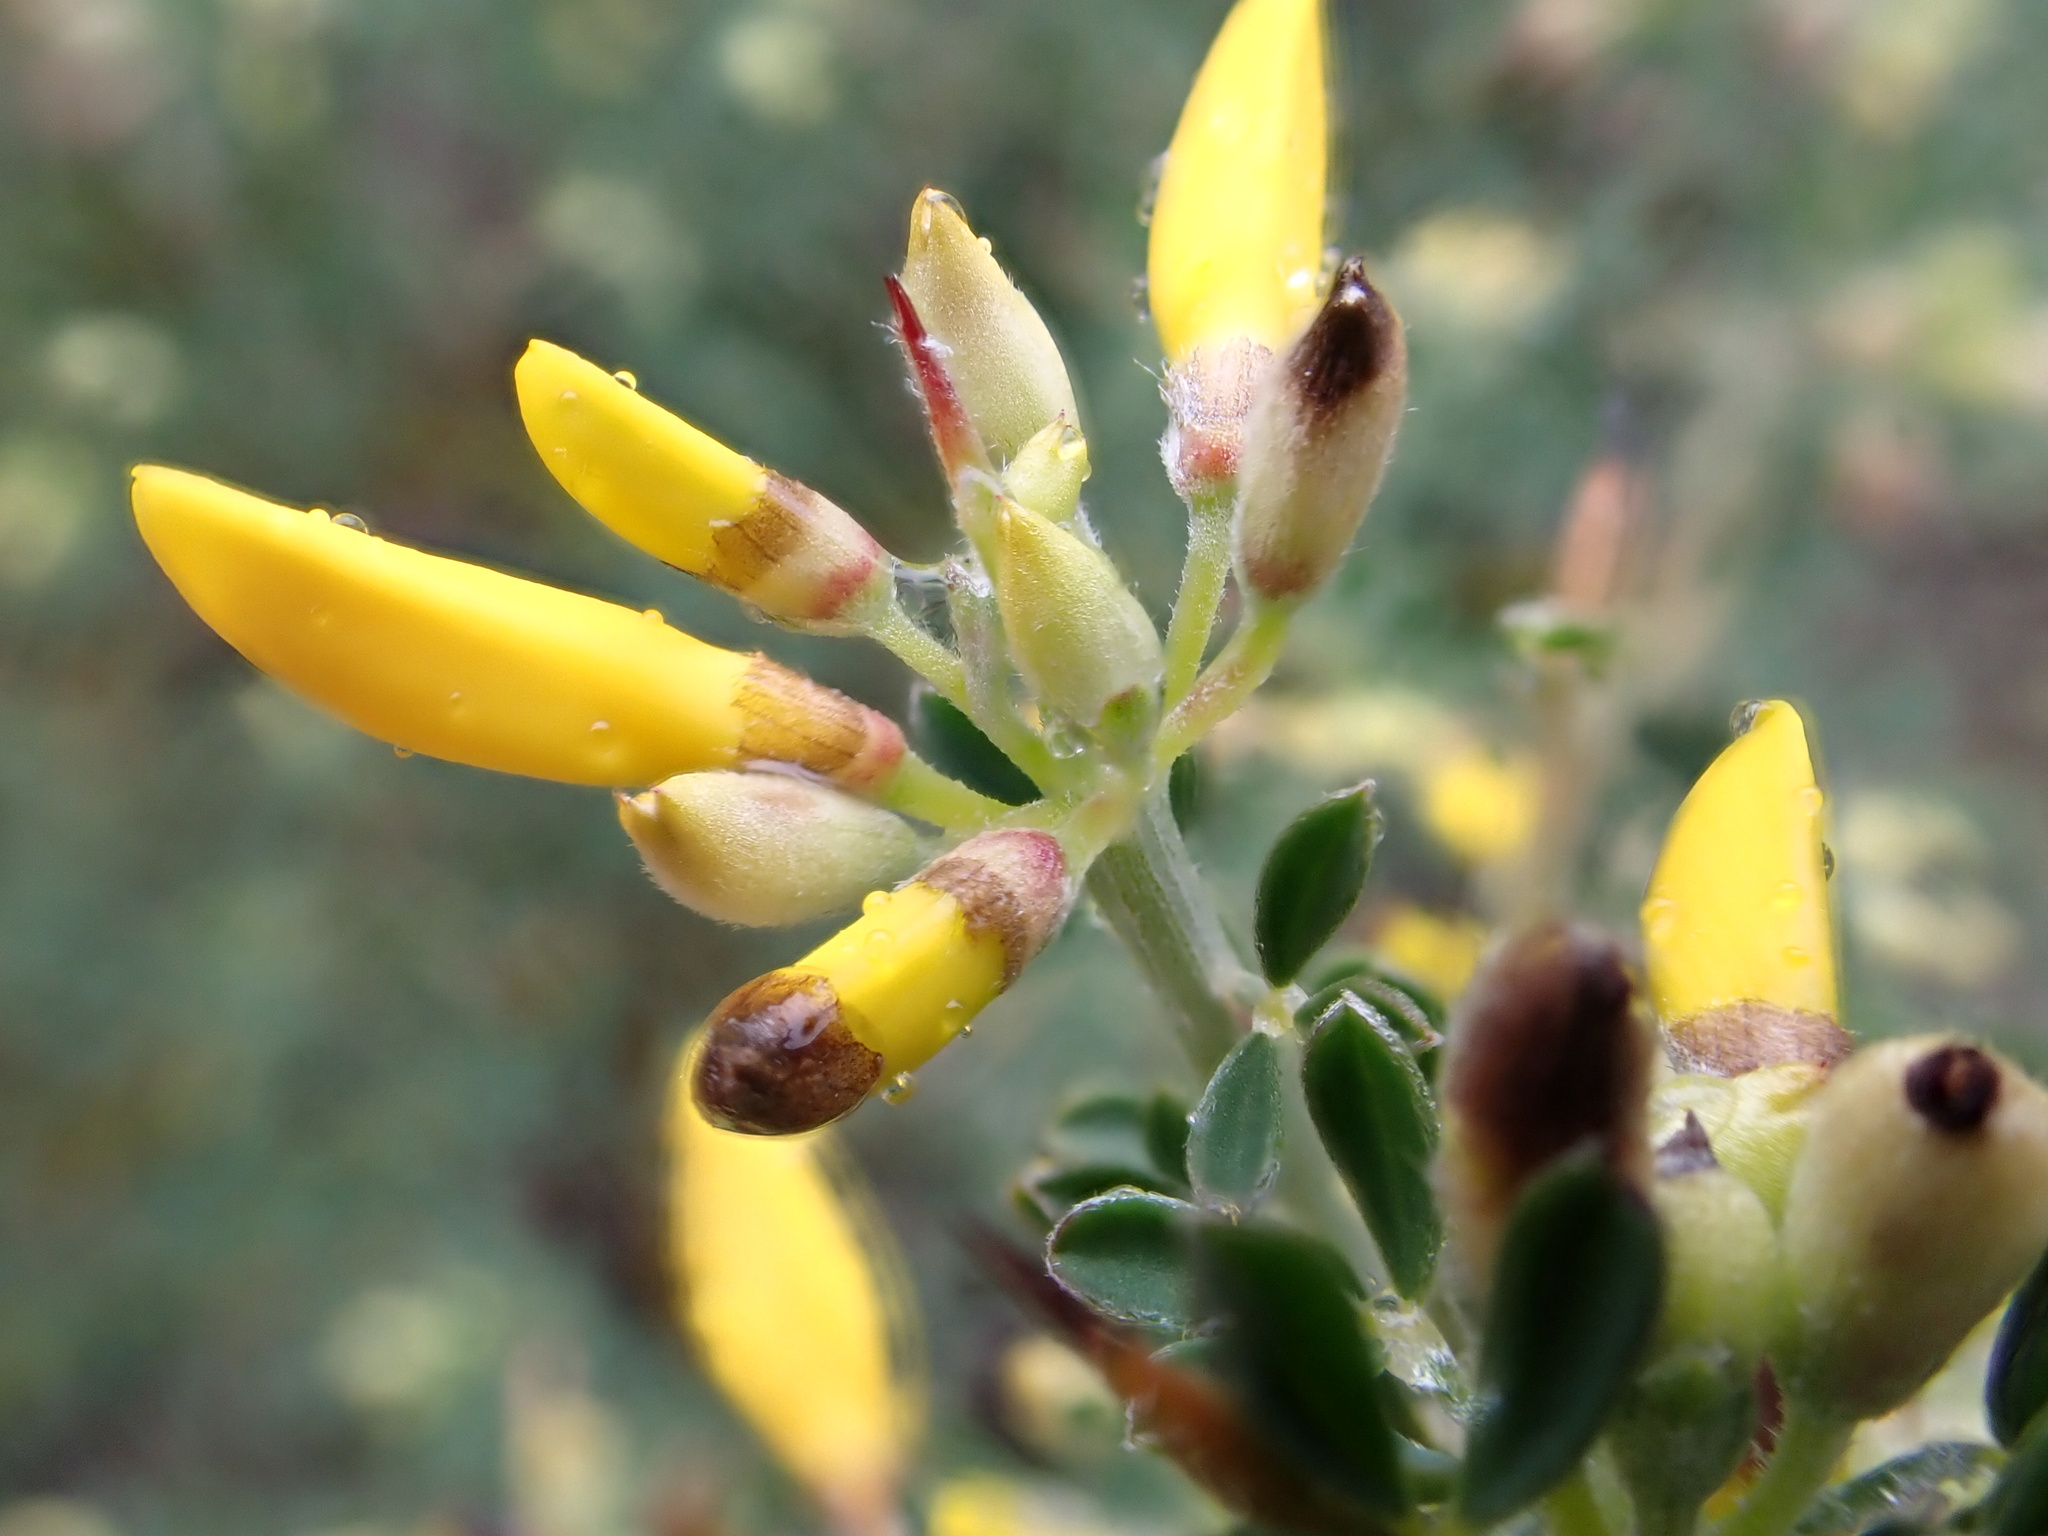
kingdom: Plantae
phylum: Tracheophyta
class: Magnoliopsida
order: Fabales
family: Fabaceae
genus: Calicotome
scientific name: Calicotome villosa
